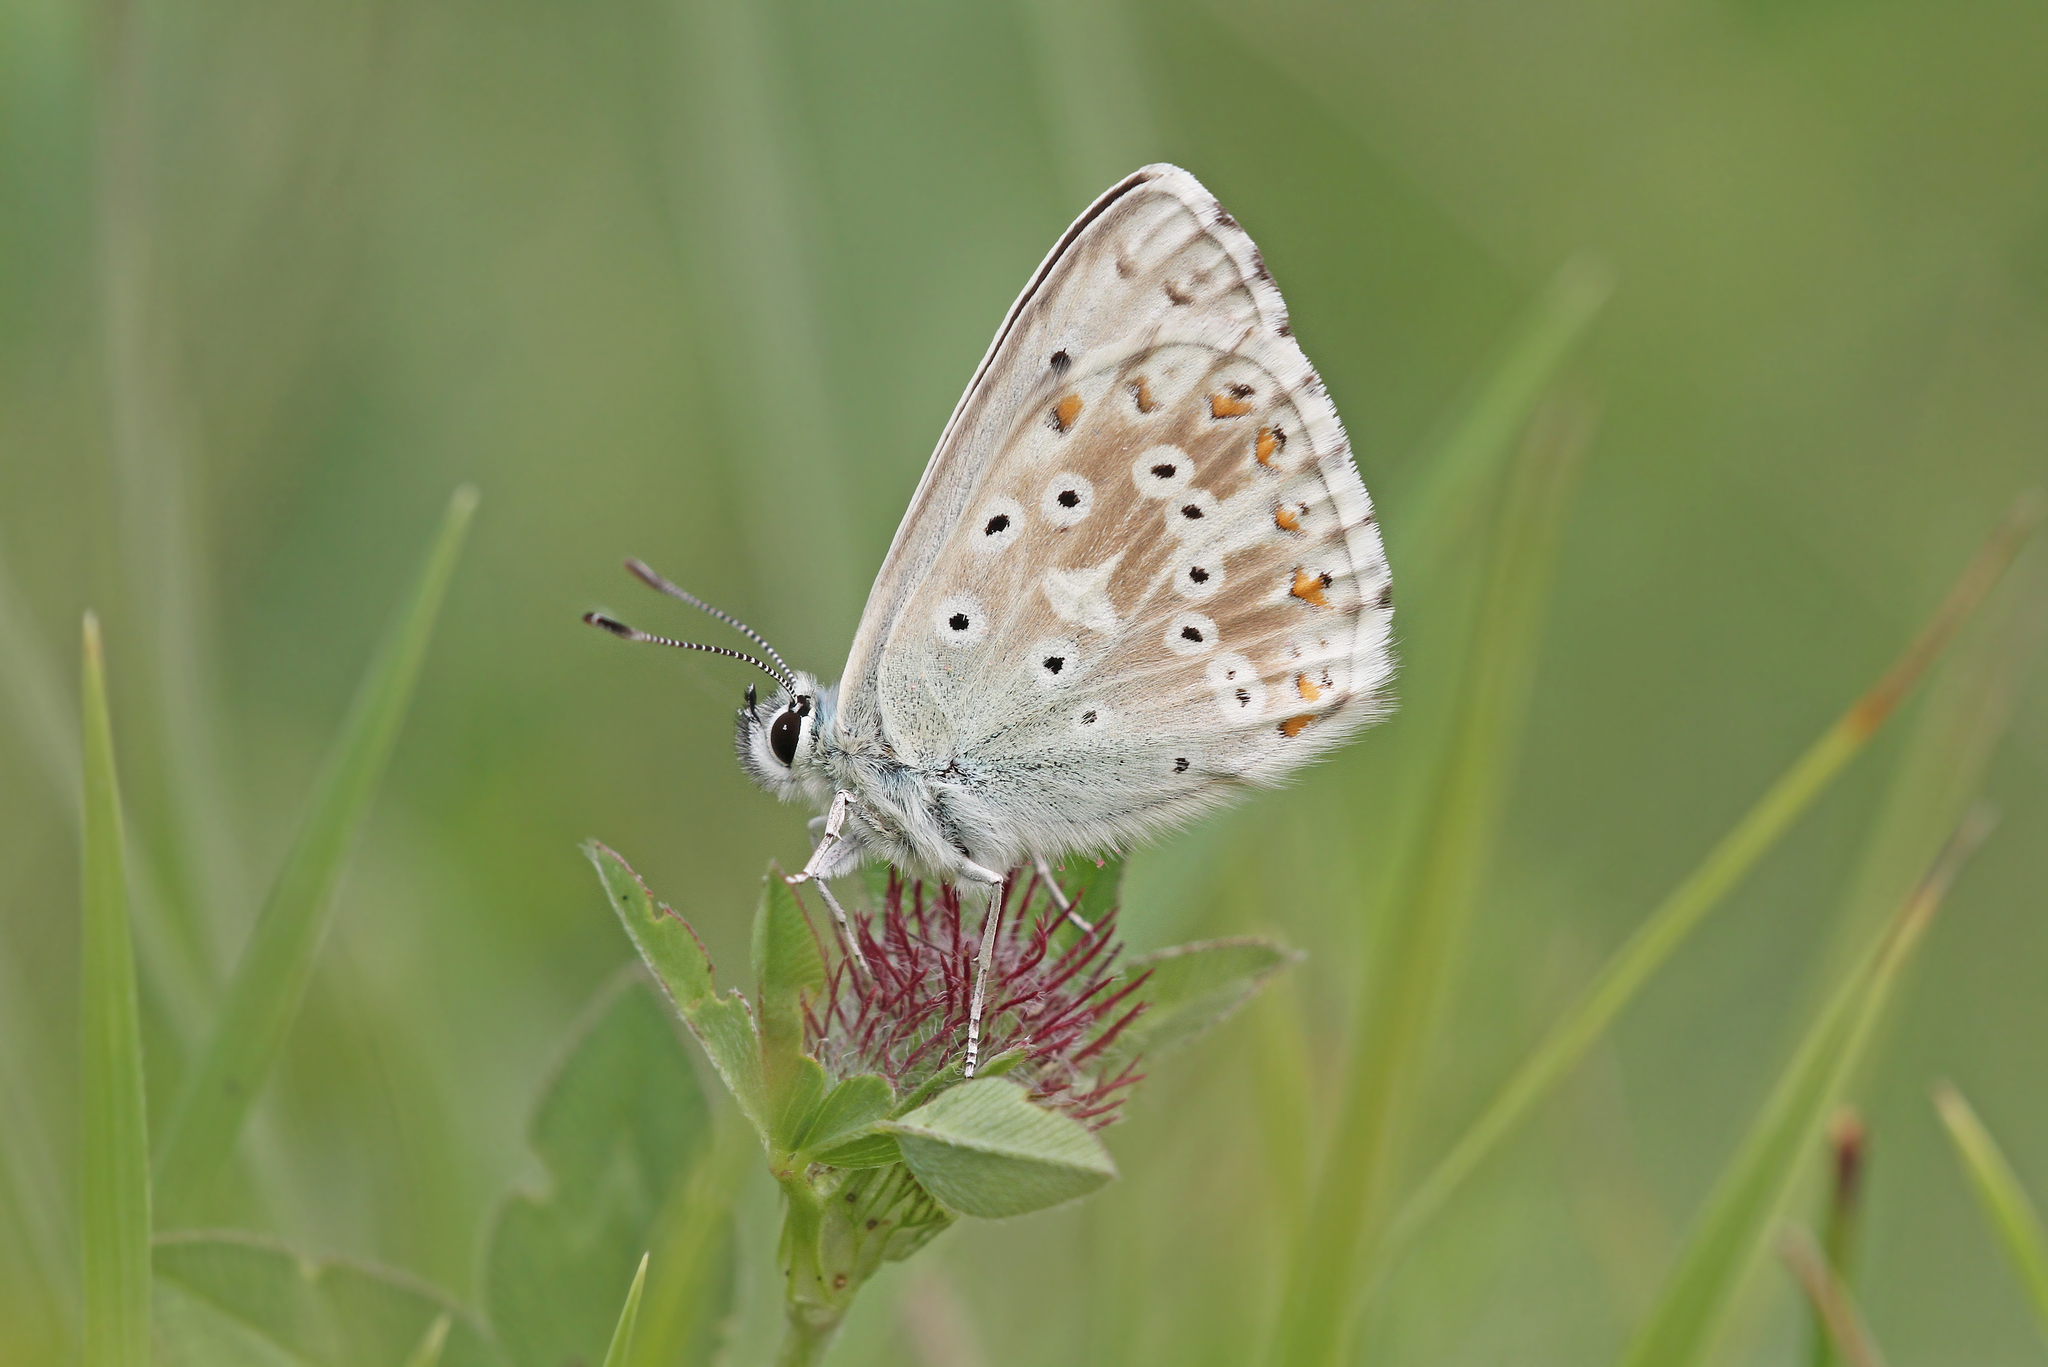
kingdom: Animalia
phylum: Arthropoda
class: Insecta
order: Lepidoptera
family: Lycaenidae
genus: Lysandra
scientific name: Lysandra coridon
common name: Chalkhill blue
